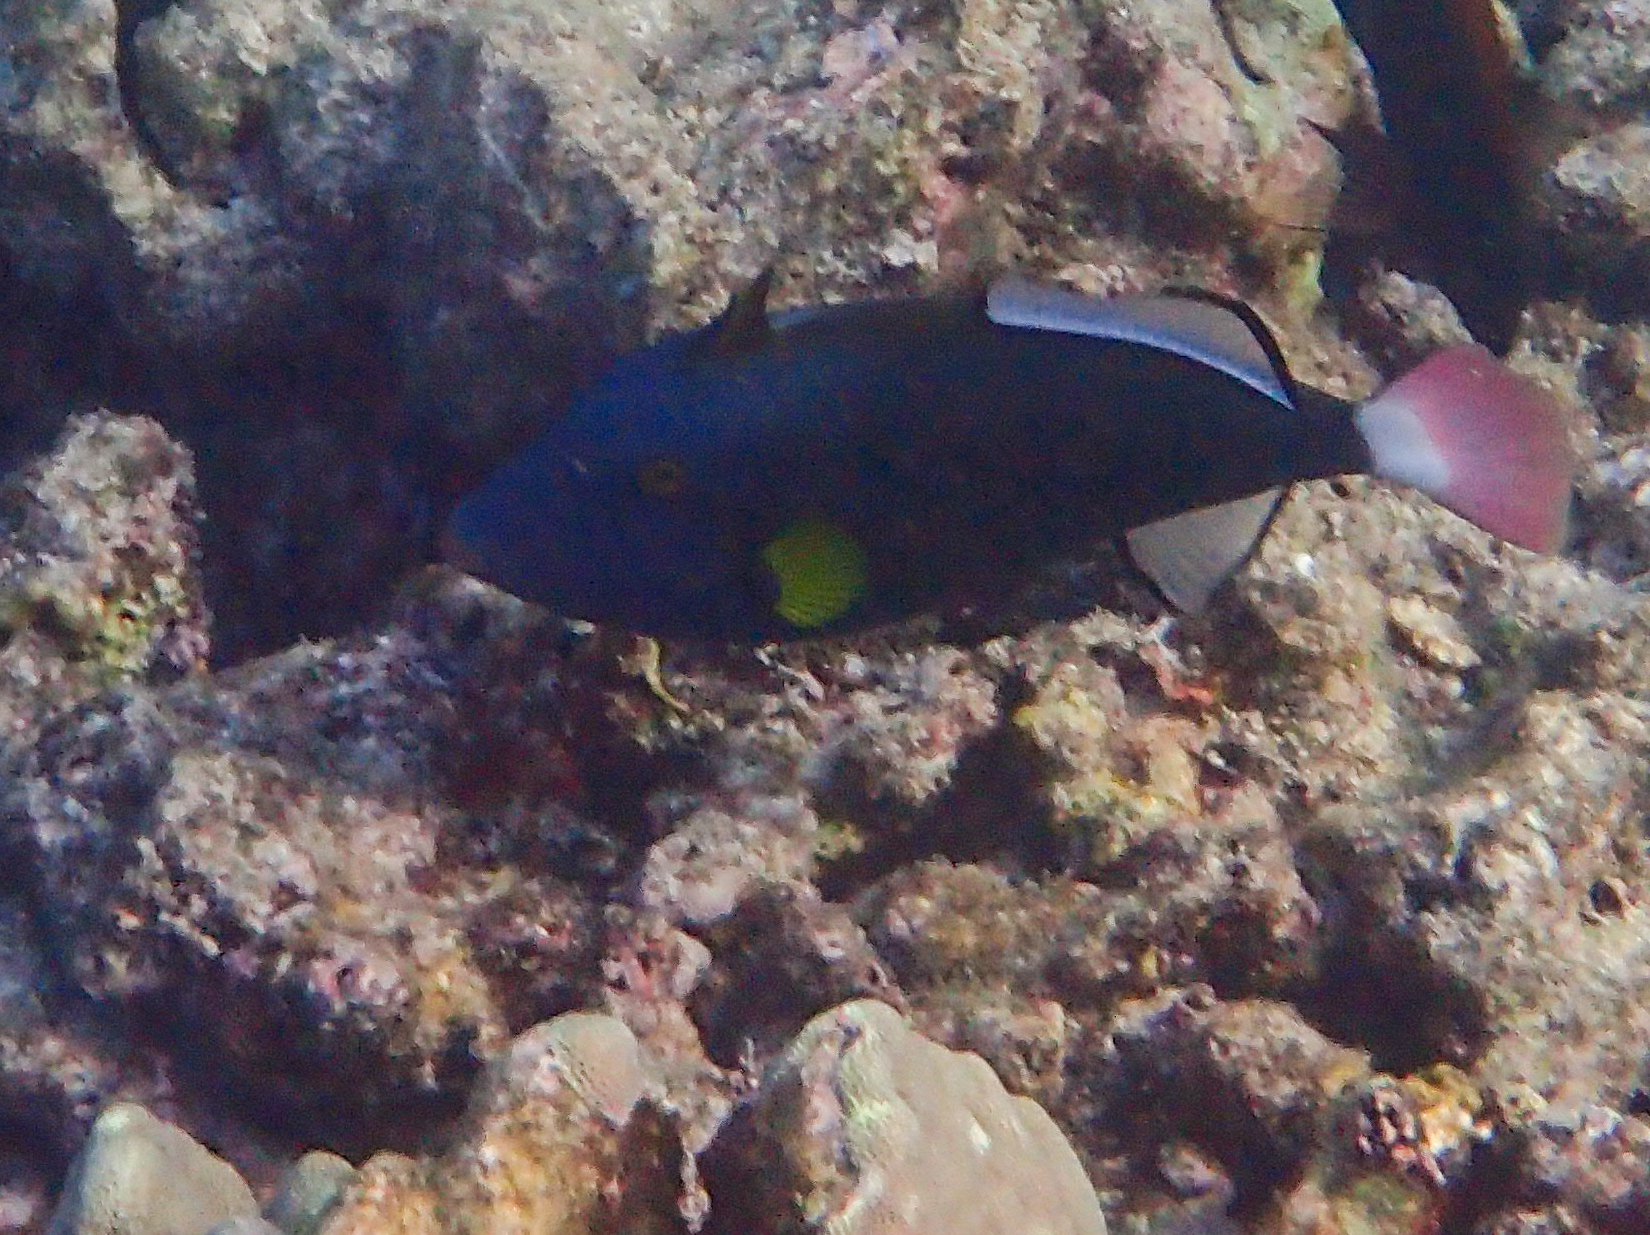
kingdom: Animalia
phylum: Chordata
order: Tetraodontiformes
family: Balistidae
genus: Melichthys
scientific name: Melichthys vidua
